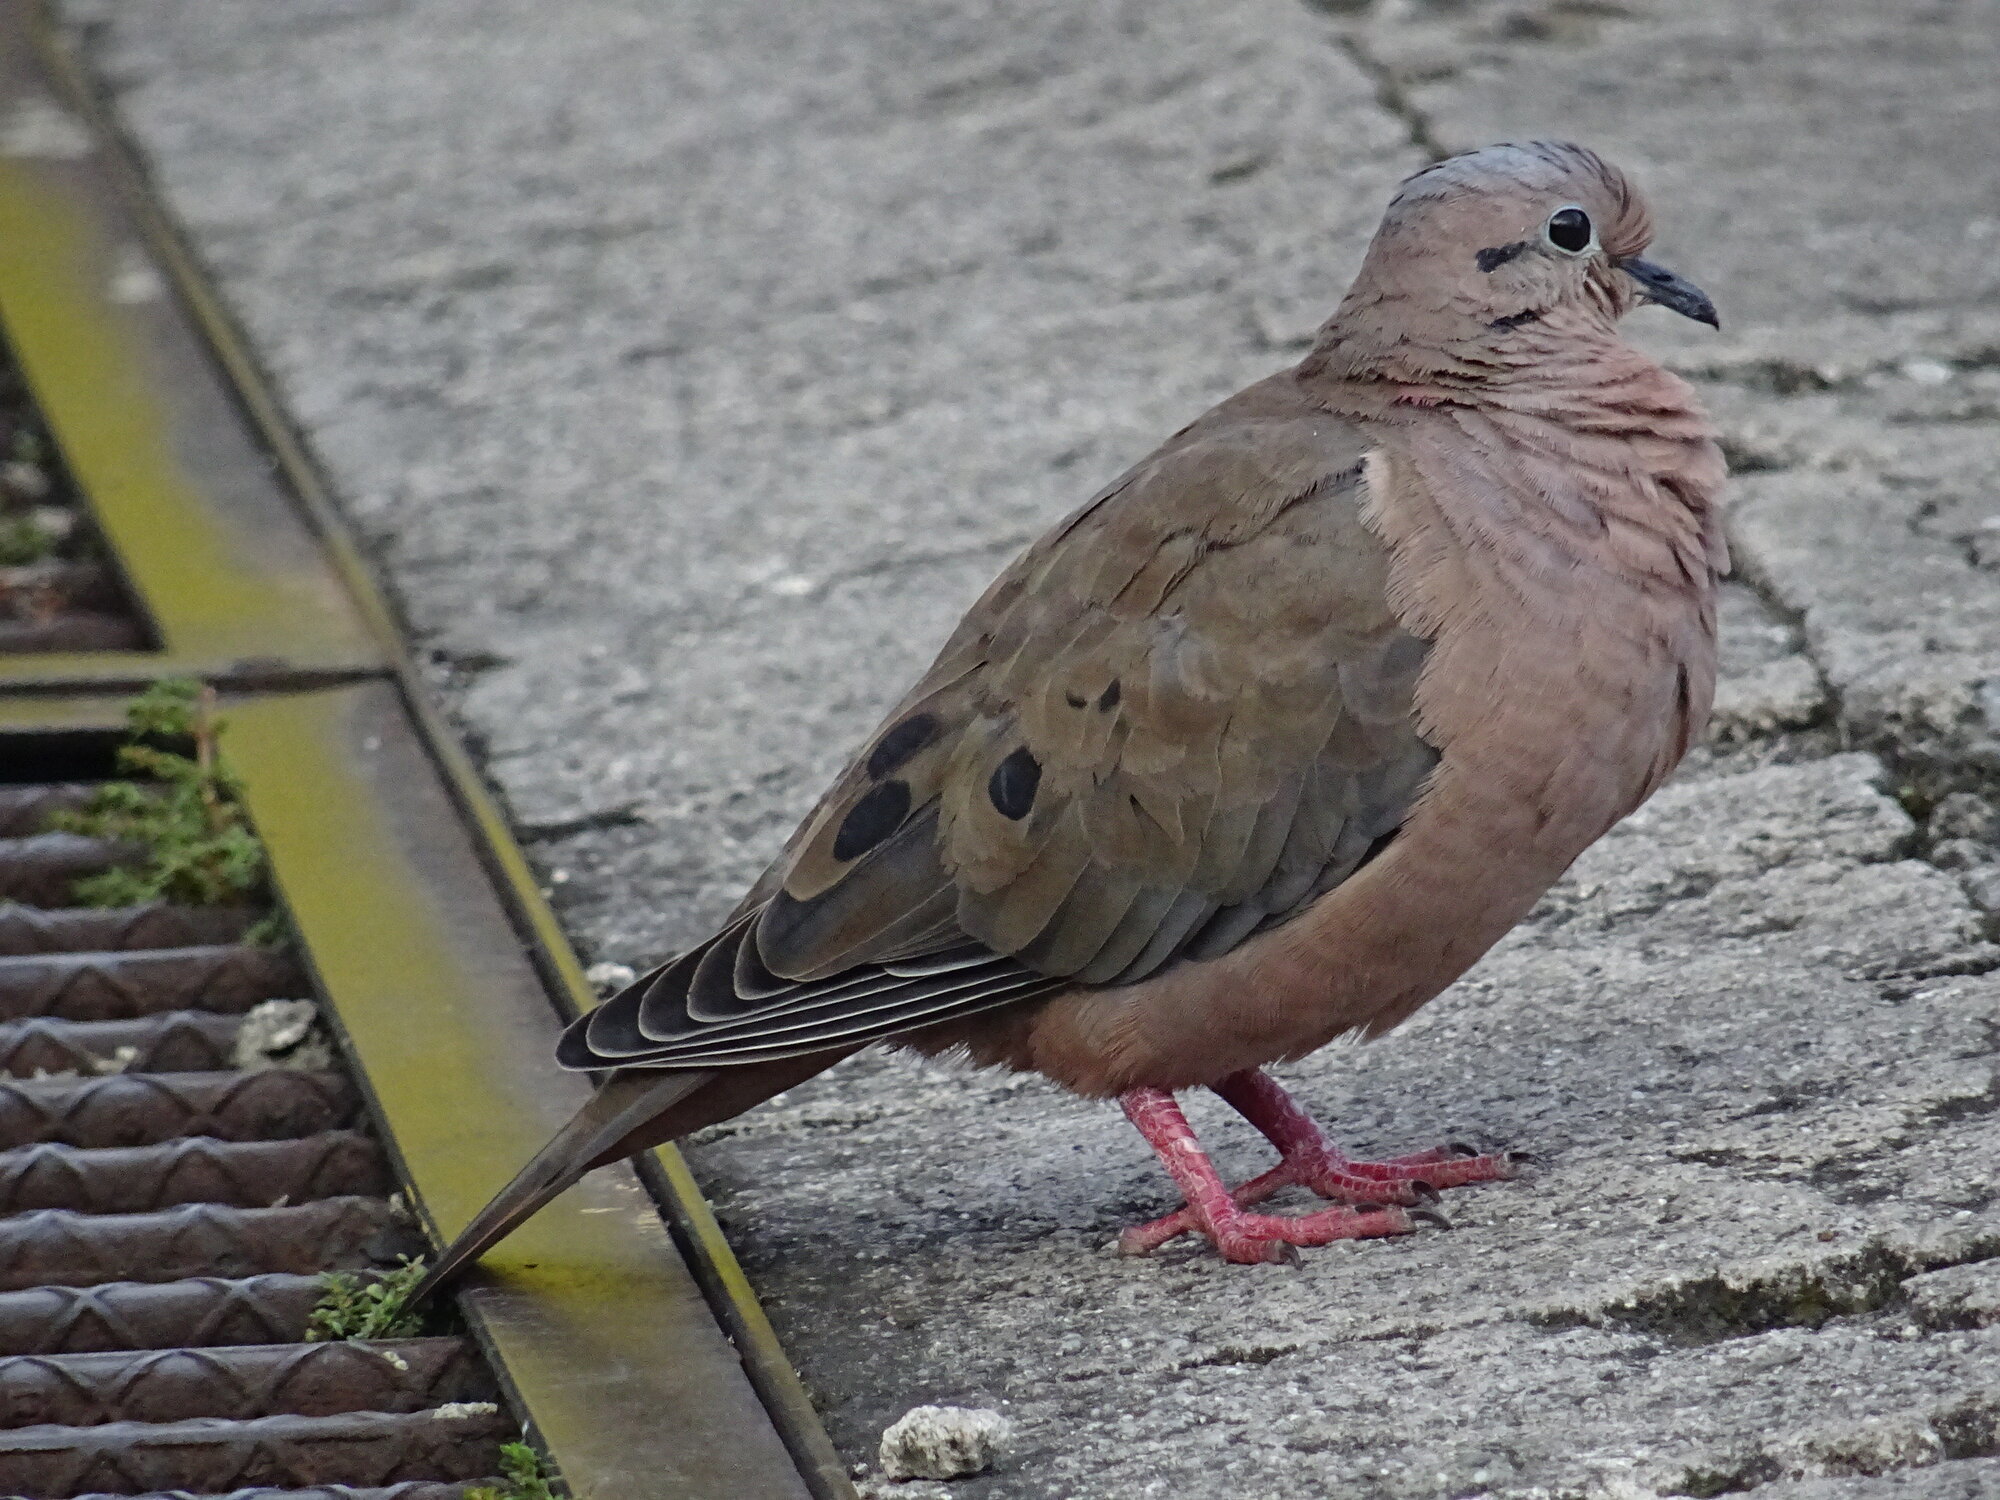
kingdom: Animalia
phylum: Chordata
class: Aves
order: Columbiformes
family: Columbidae
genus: Zenaida
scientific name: Zenaida auriculata
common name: Eared dove
